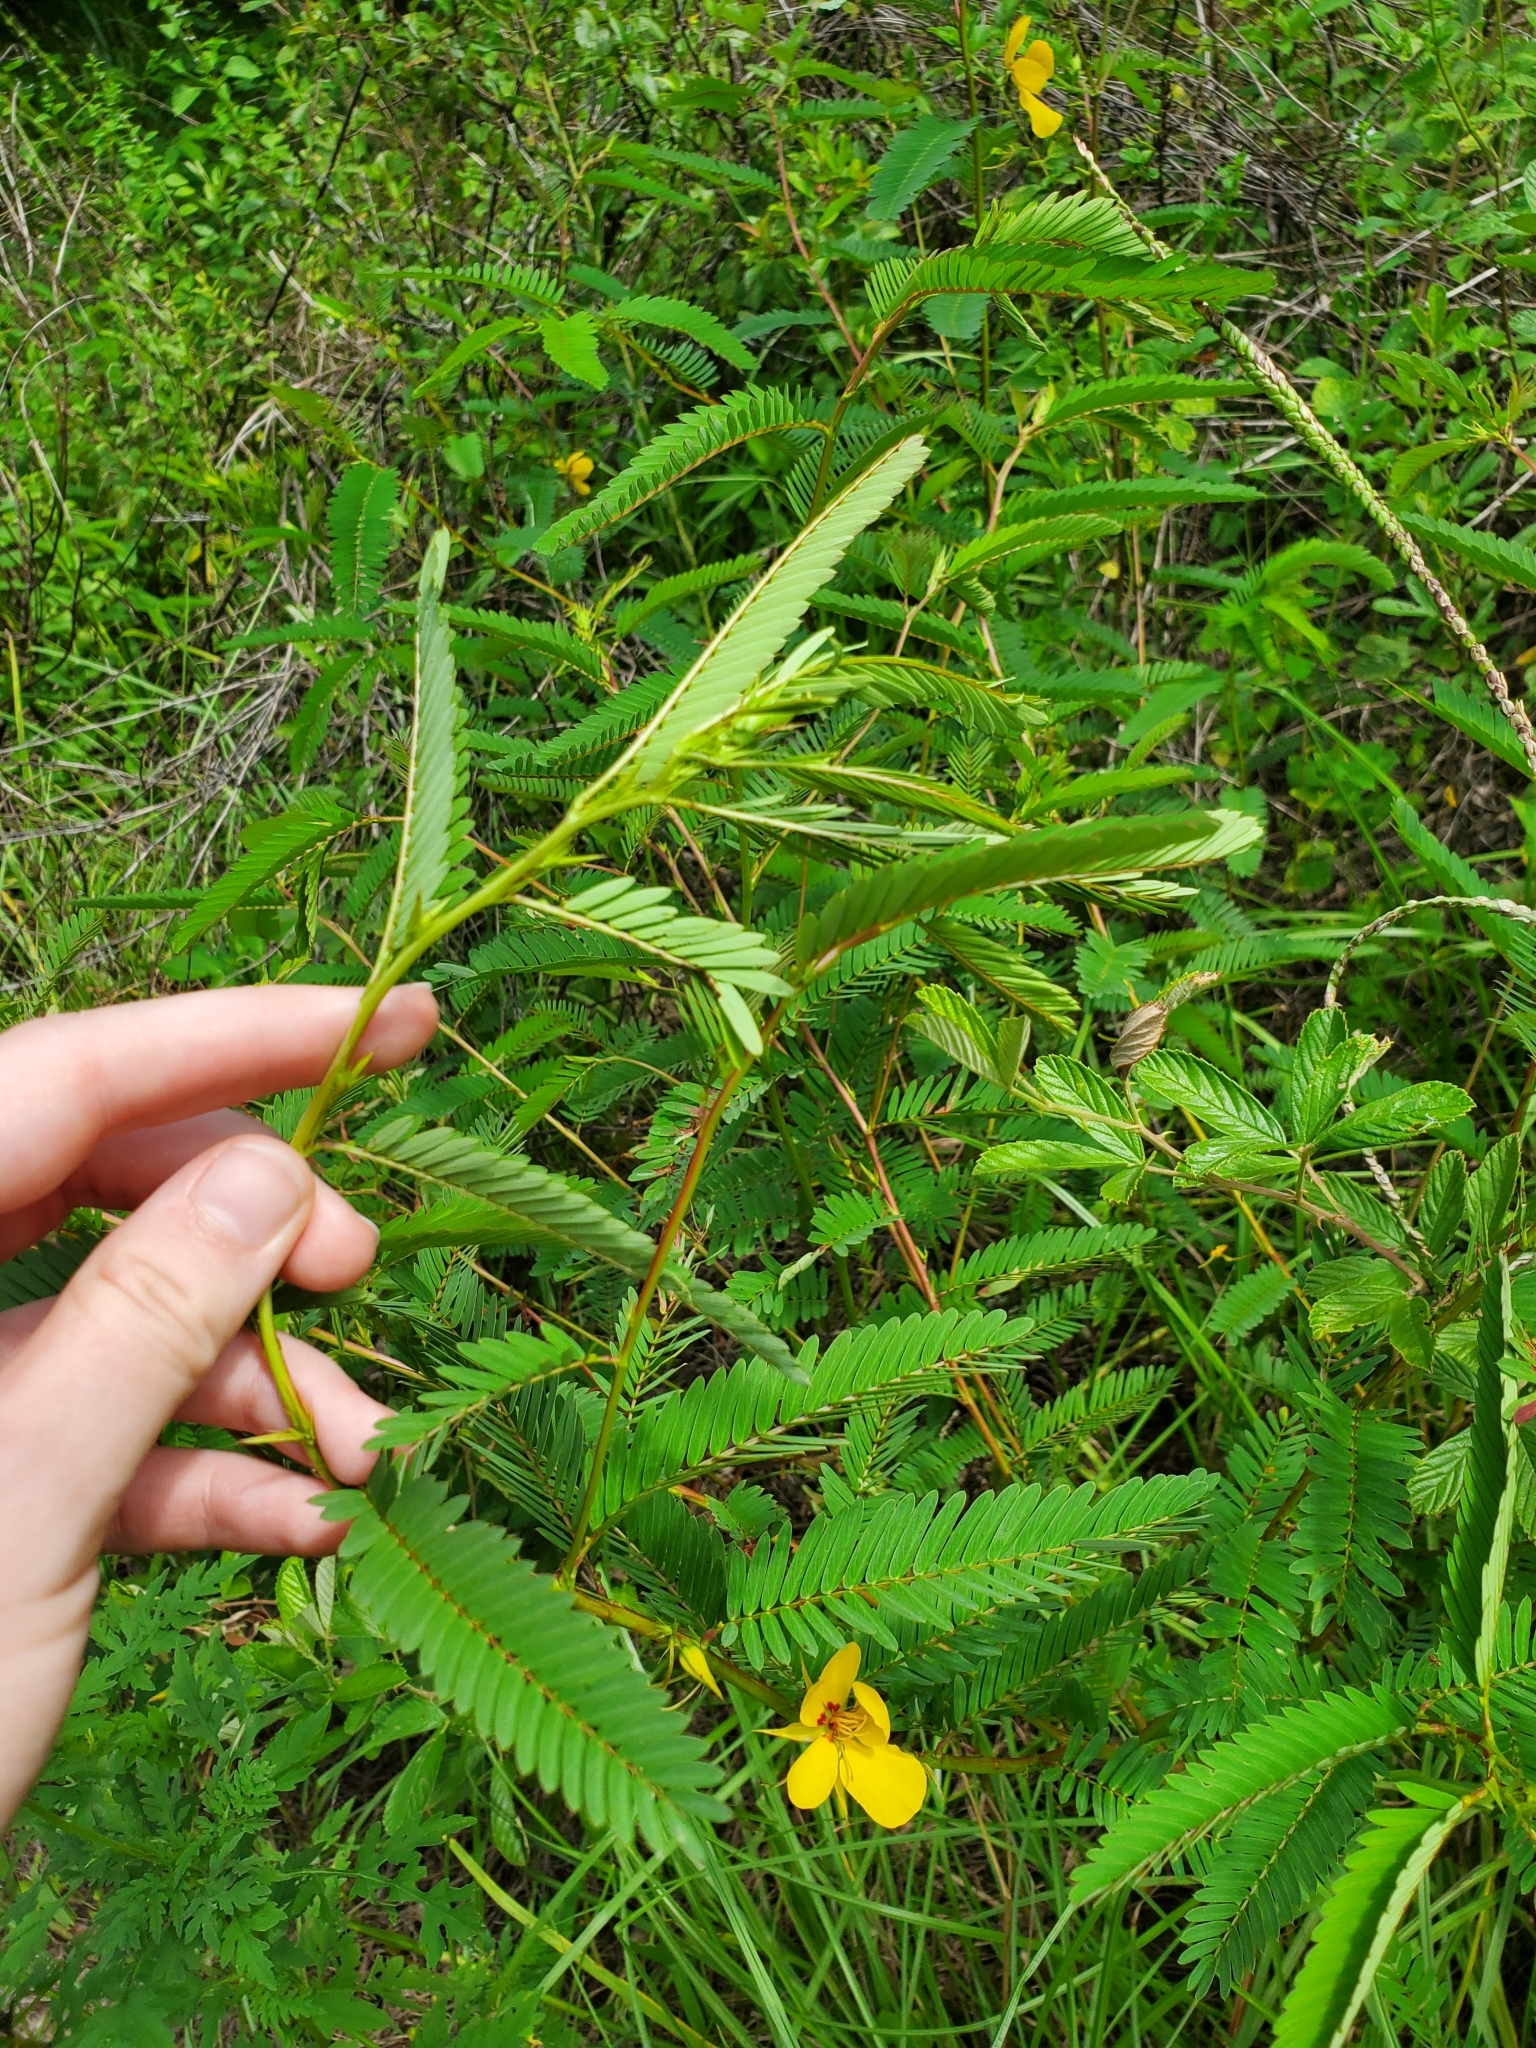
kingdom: Plantae
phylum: Tracheophyta
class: Magnoliopsida
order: Fabales
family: Fabaceae
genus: Chamaecrista
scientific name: Chamaecrista fasciculata
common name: Golden cassia
